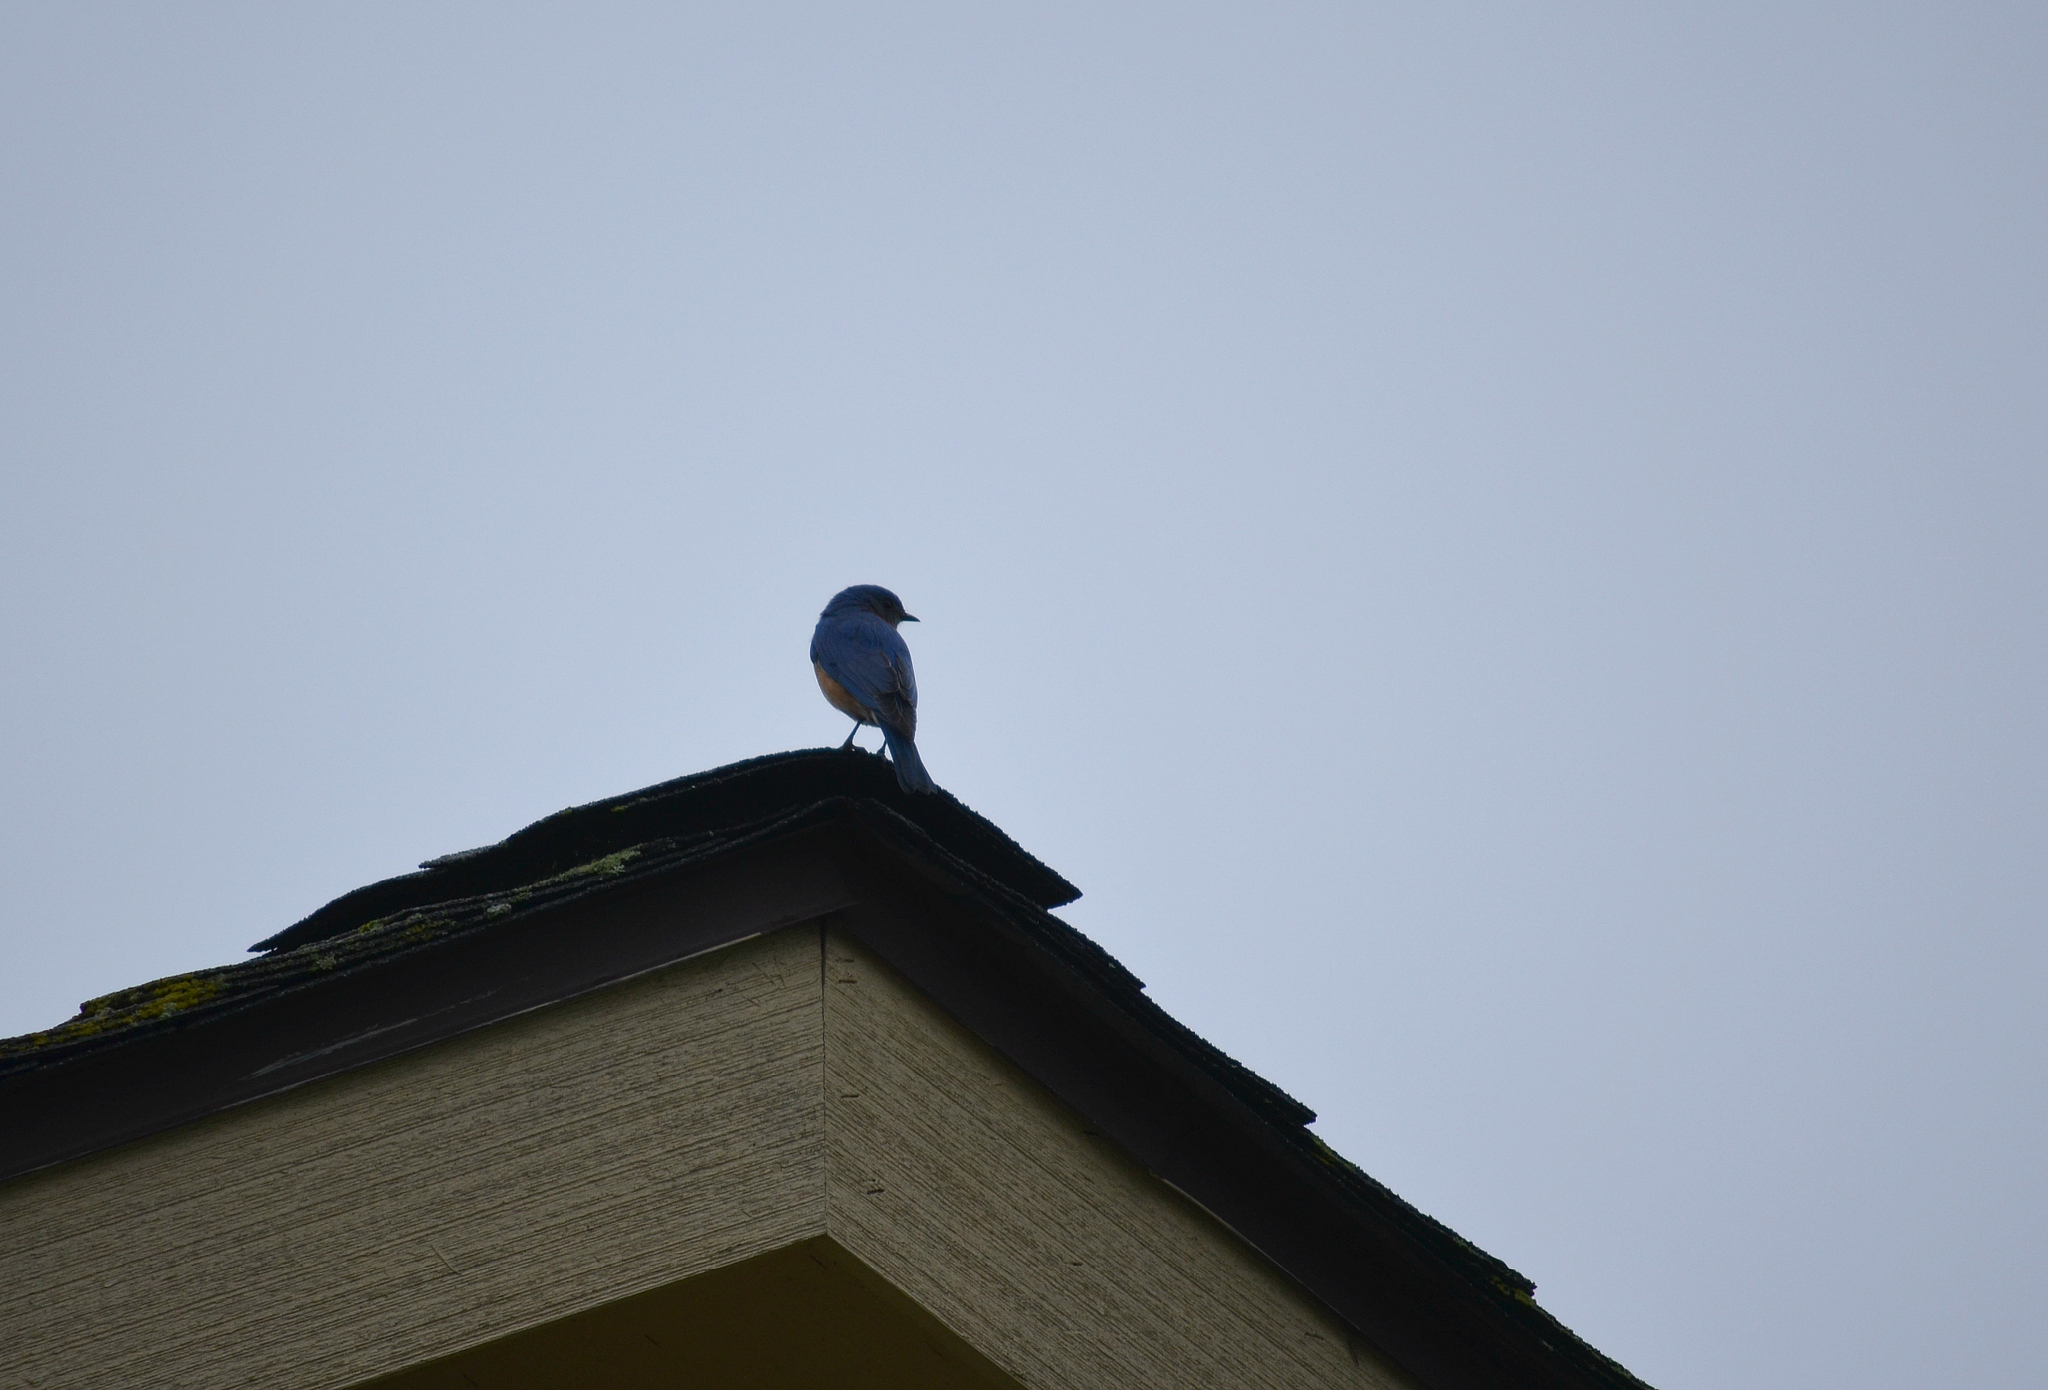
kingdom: Animalia
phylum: Chordata
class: Aves
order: Passeriformes
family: Turdidae
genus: Sialia
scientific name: Sialia sialis
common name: Eastern bluebird
